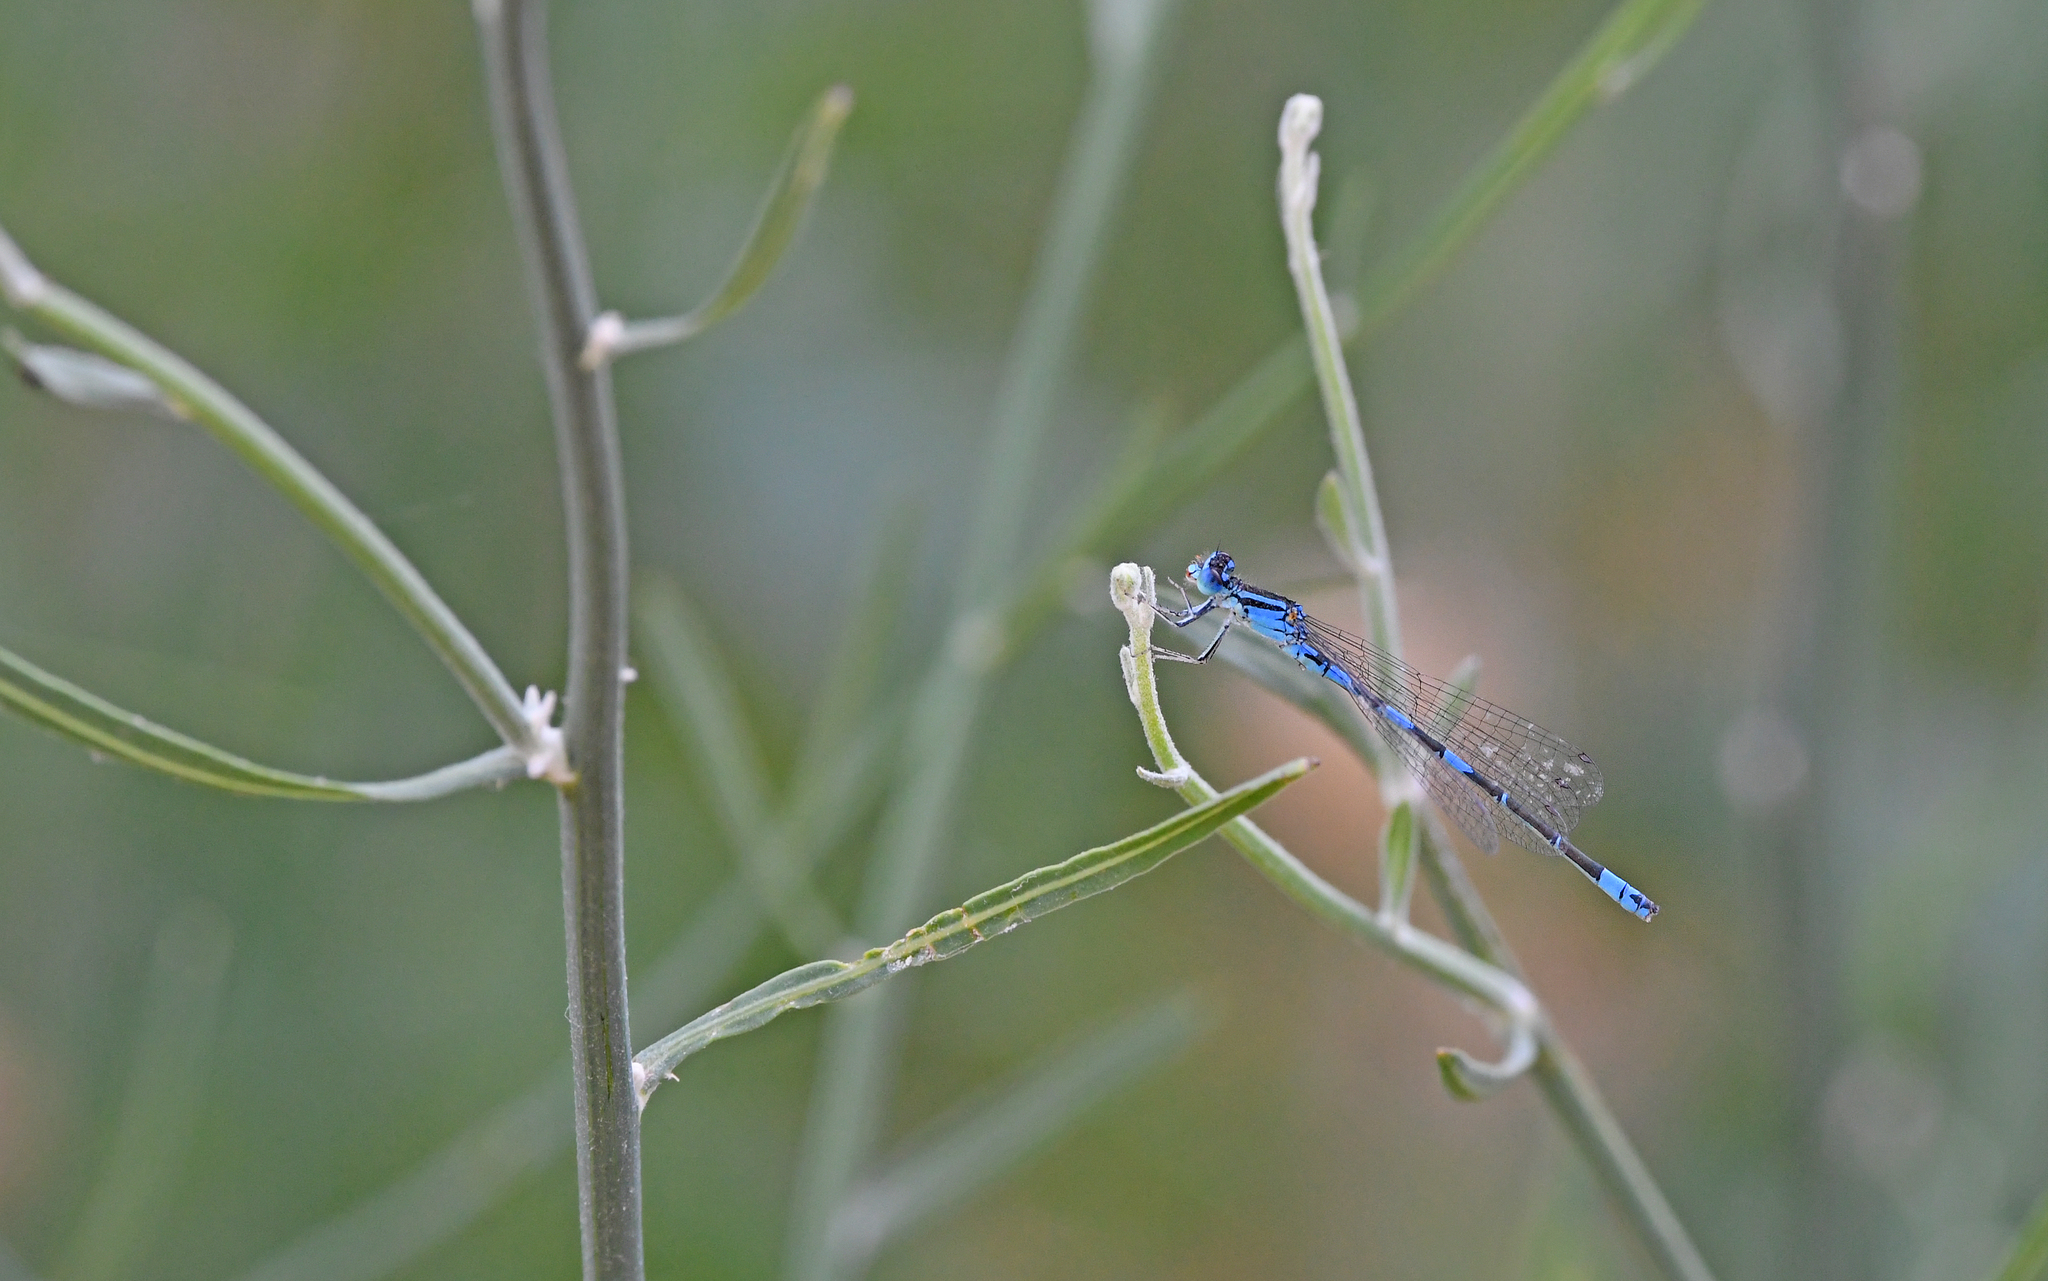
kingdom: Animalia
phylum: Arthropoda
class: Insecta
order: Odonata
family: Coenagrionidae
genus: Coenagrion
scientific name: Coenagrion caerulescens
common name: Mediterranean bluet
